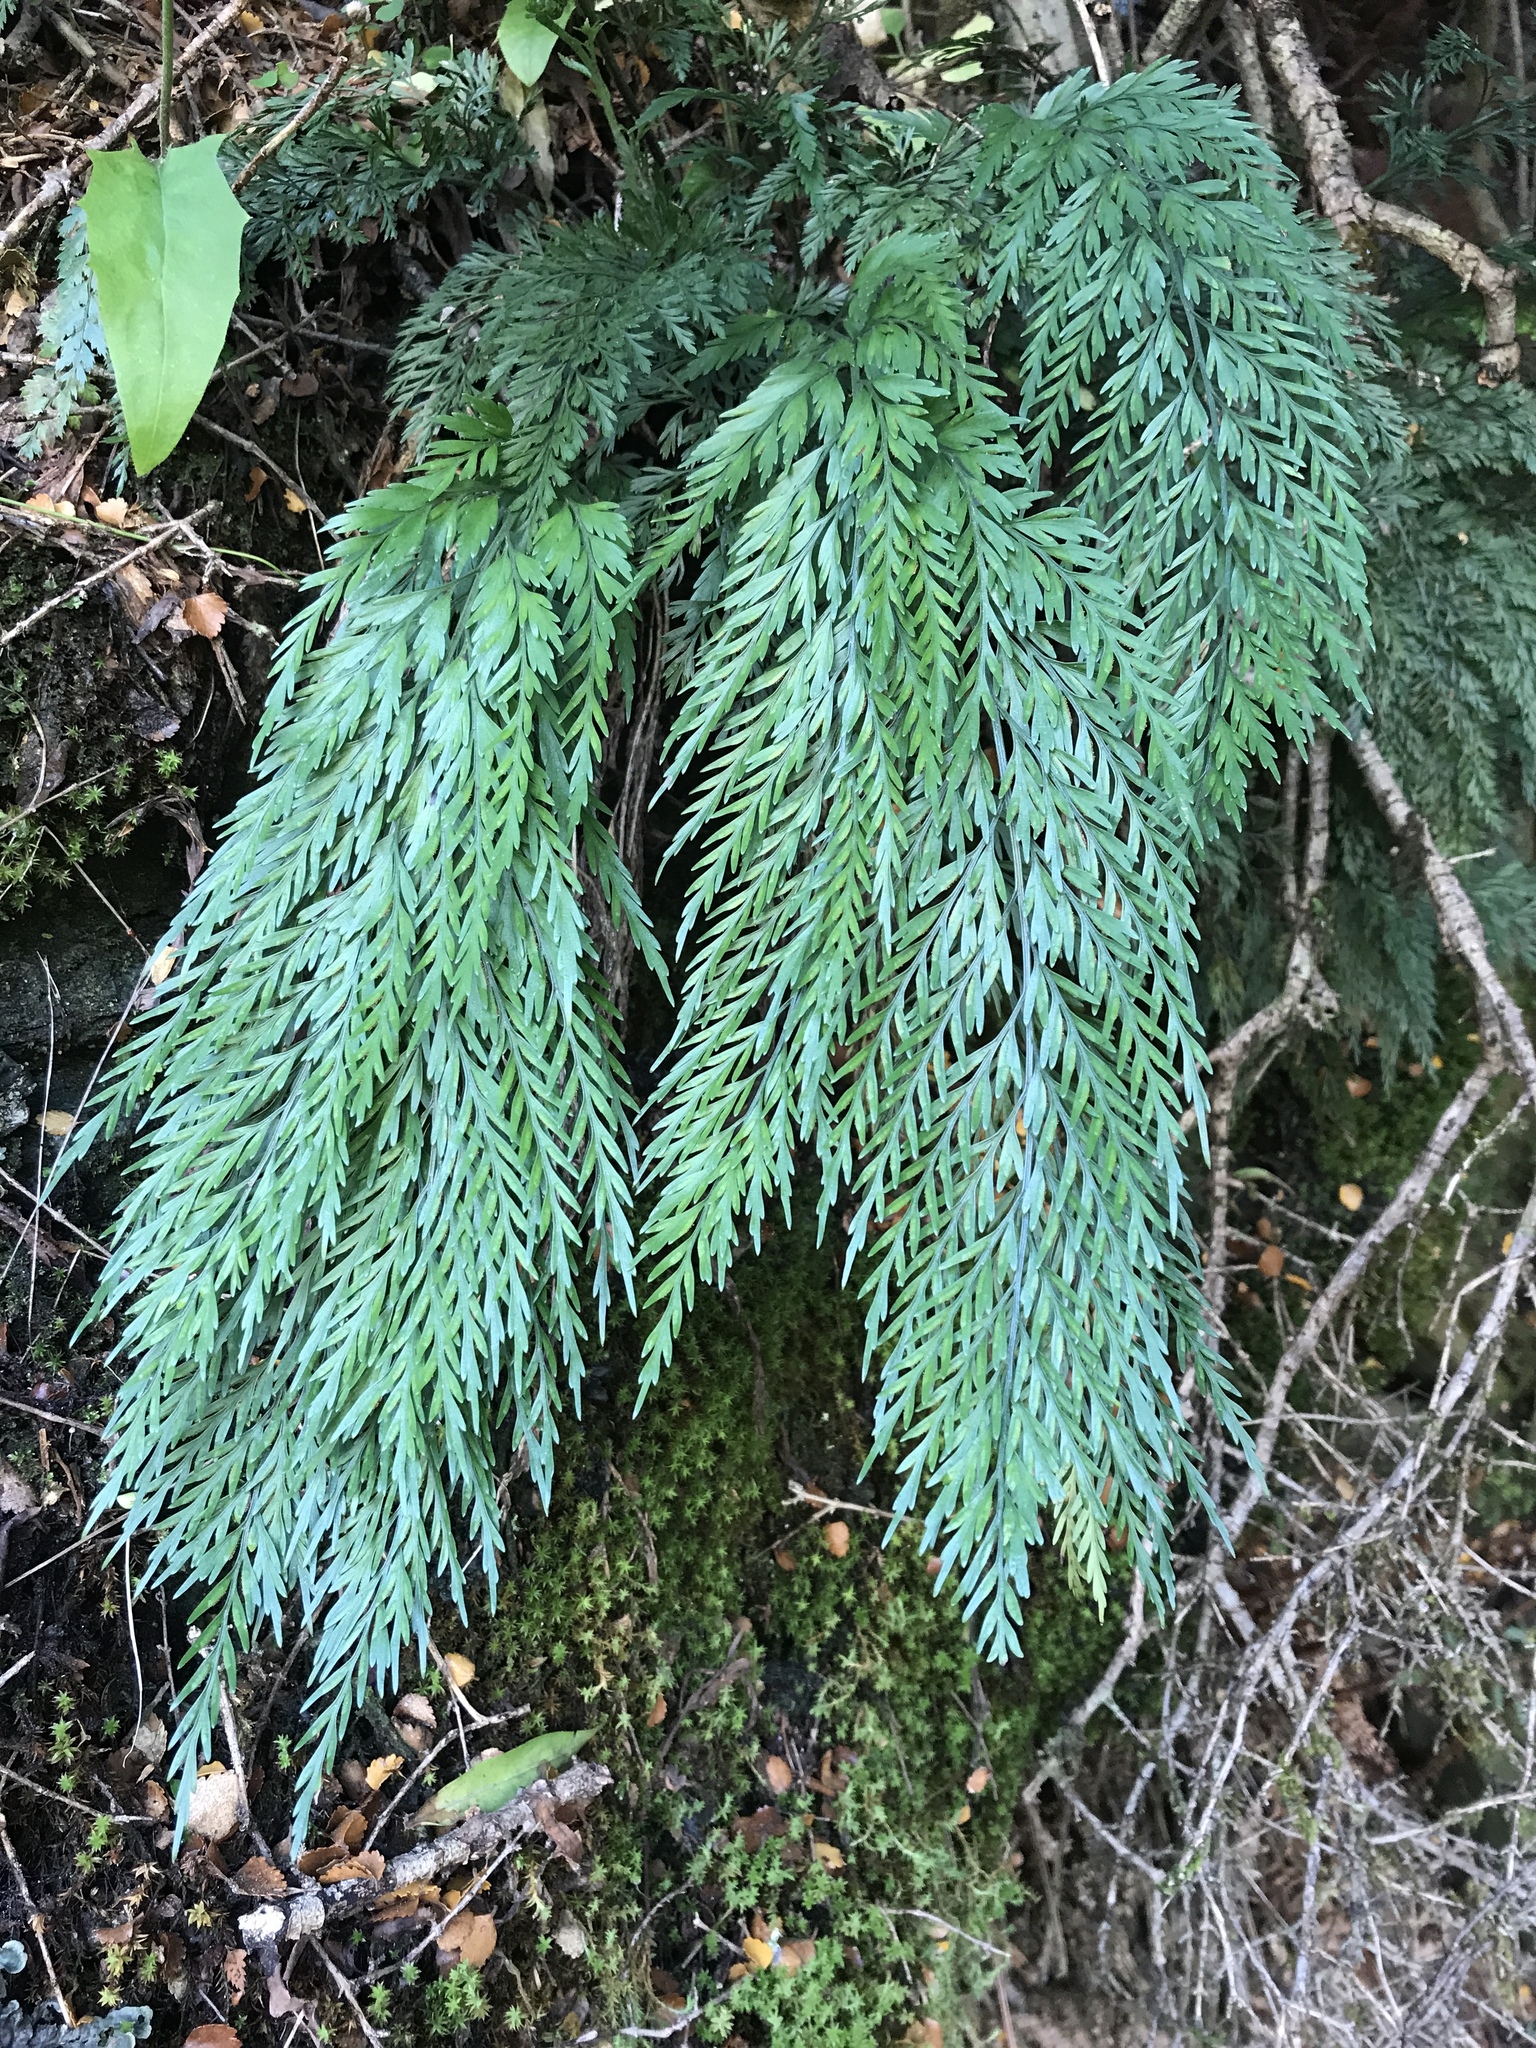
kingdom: Plantae
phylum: Tracheophyta
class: Polypodiopsida
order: Polypodiales
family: Aspleniaceae
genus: Asplenium
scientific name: Asplenium appendiculatum
